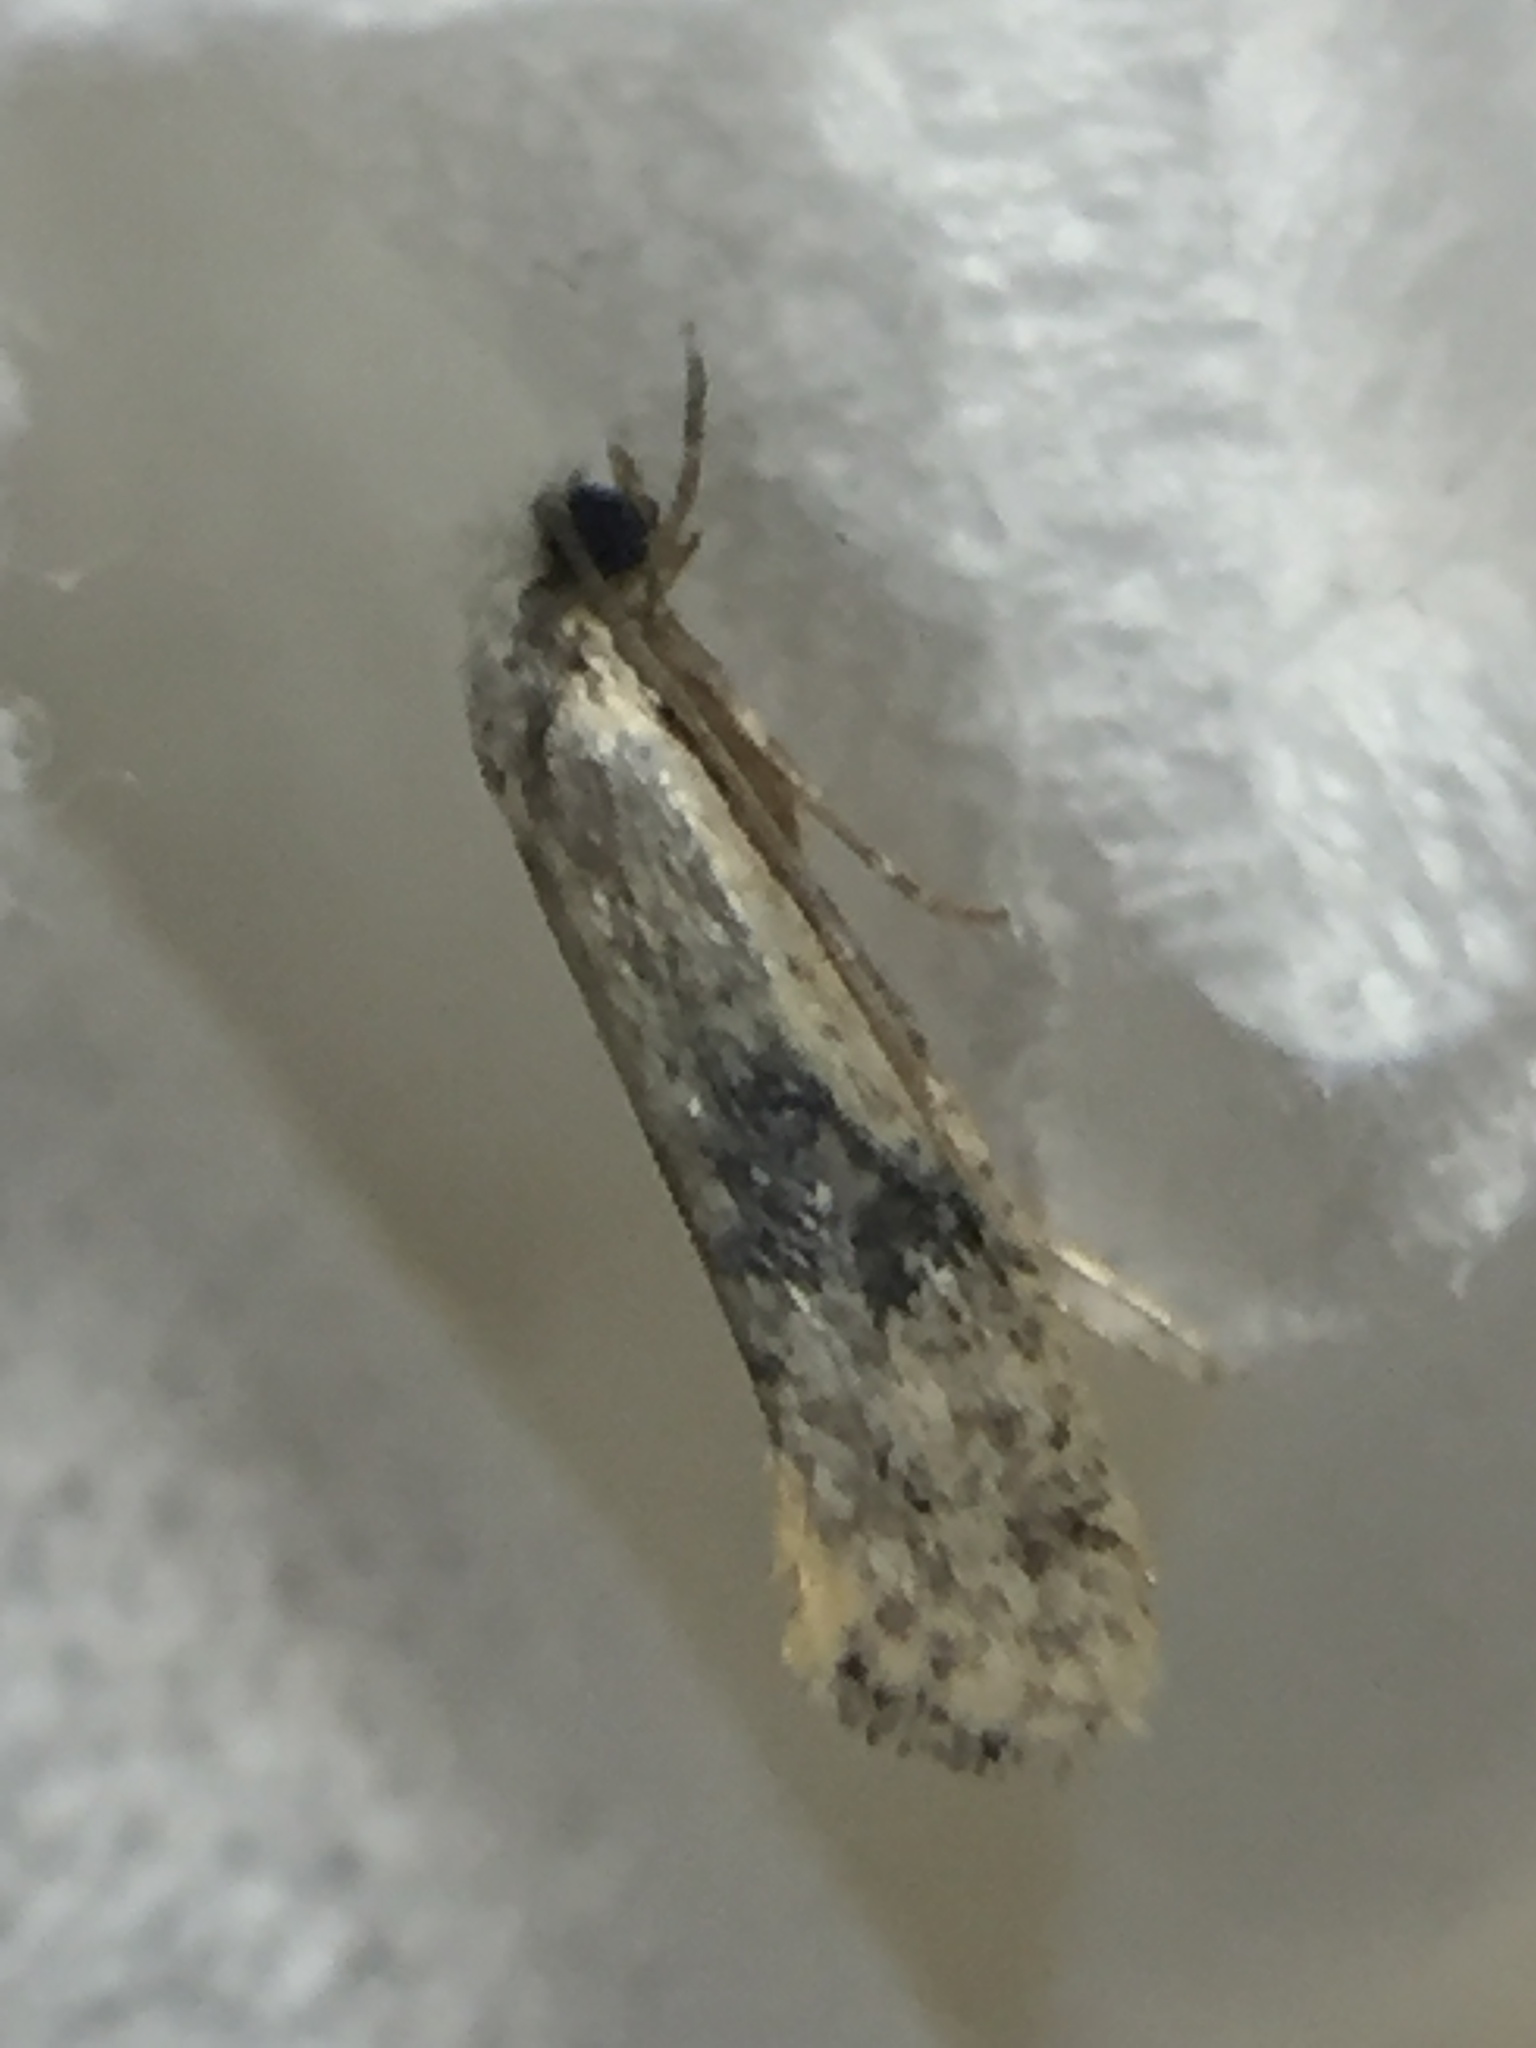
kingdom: Animalia
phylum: Arthropoda
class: Insecta
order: Lepidoptera
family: Tineidae
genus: Monopis
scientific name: Monopis argillacea
